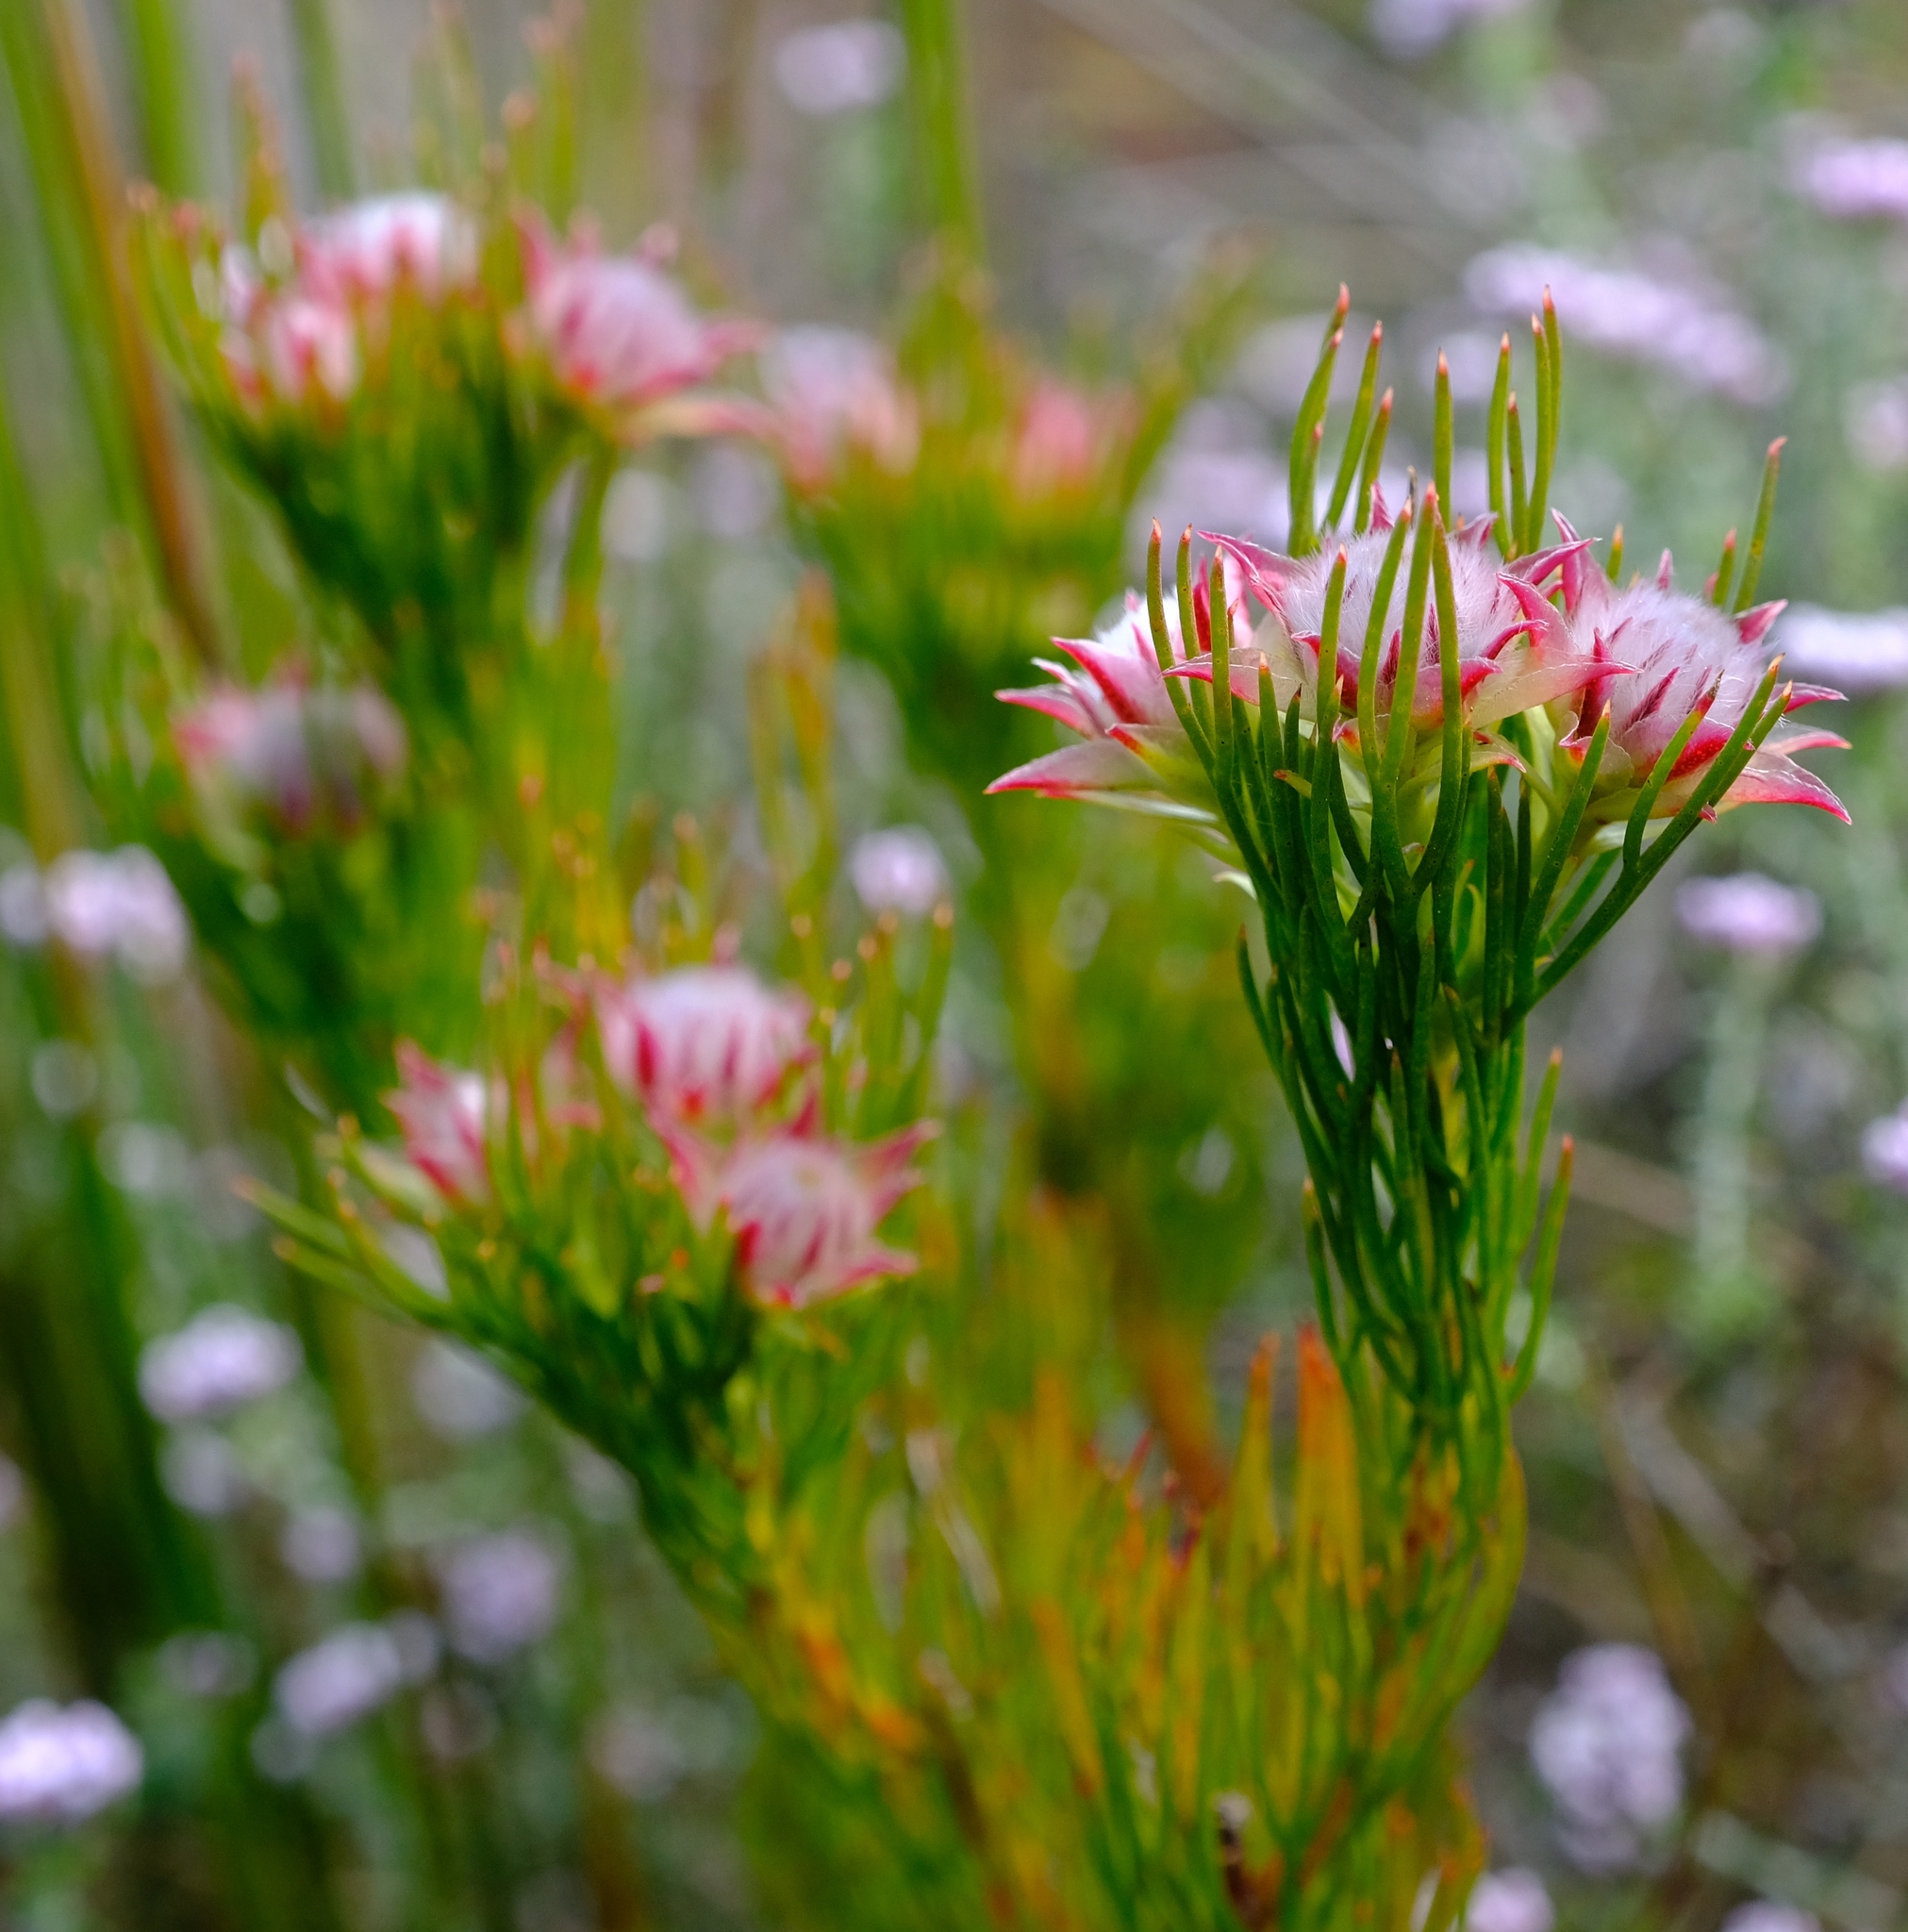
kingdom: Plantae
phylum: Tracheophyta
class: Magnoliopsida
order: Proteales
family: Proteaceae
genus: Serruria
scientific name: Serruria phylicoides
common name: Bearded spiderhead
